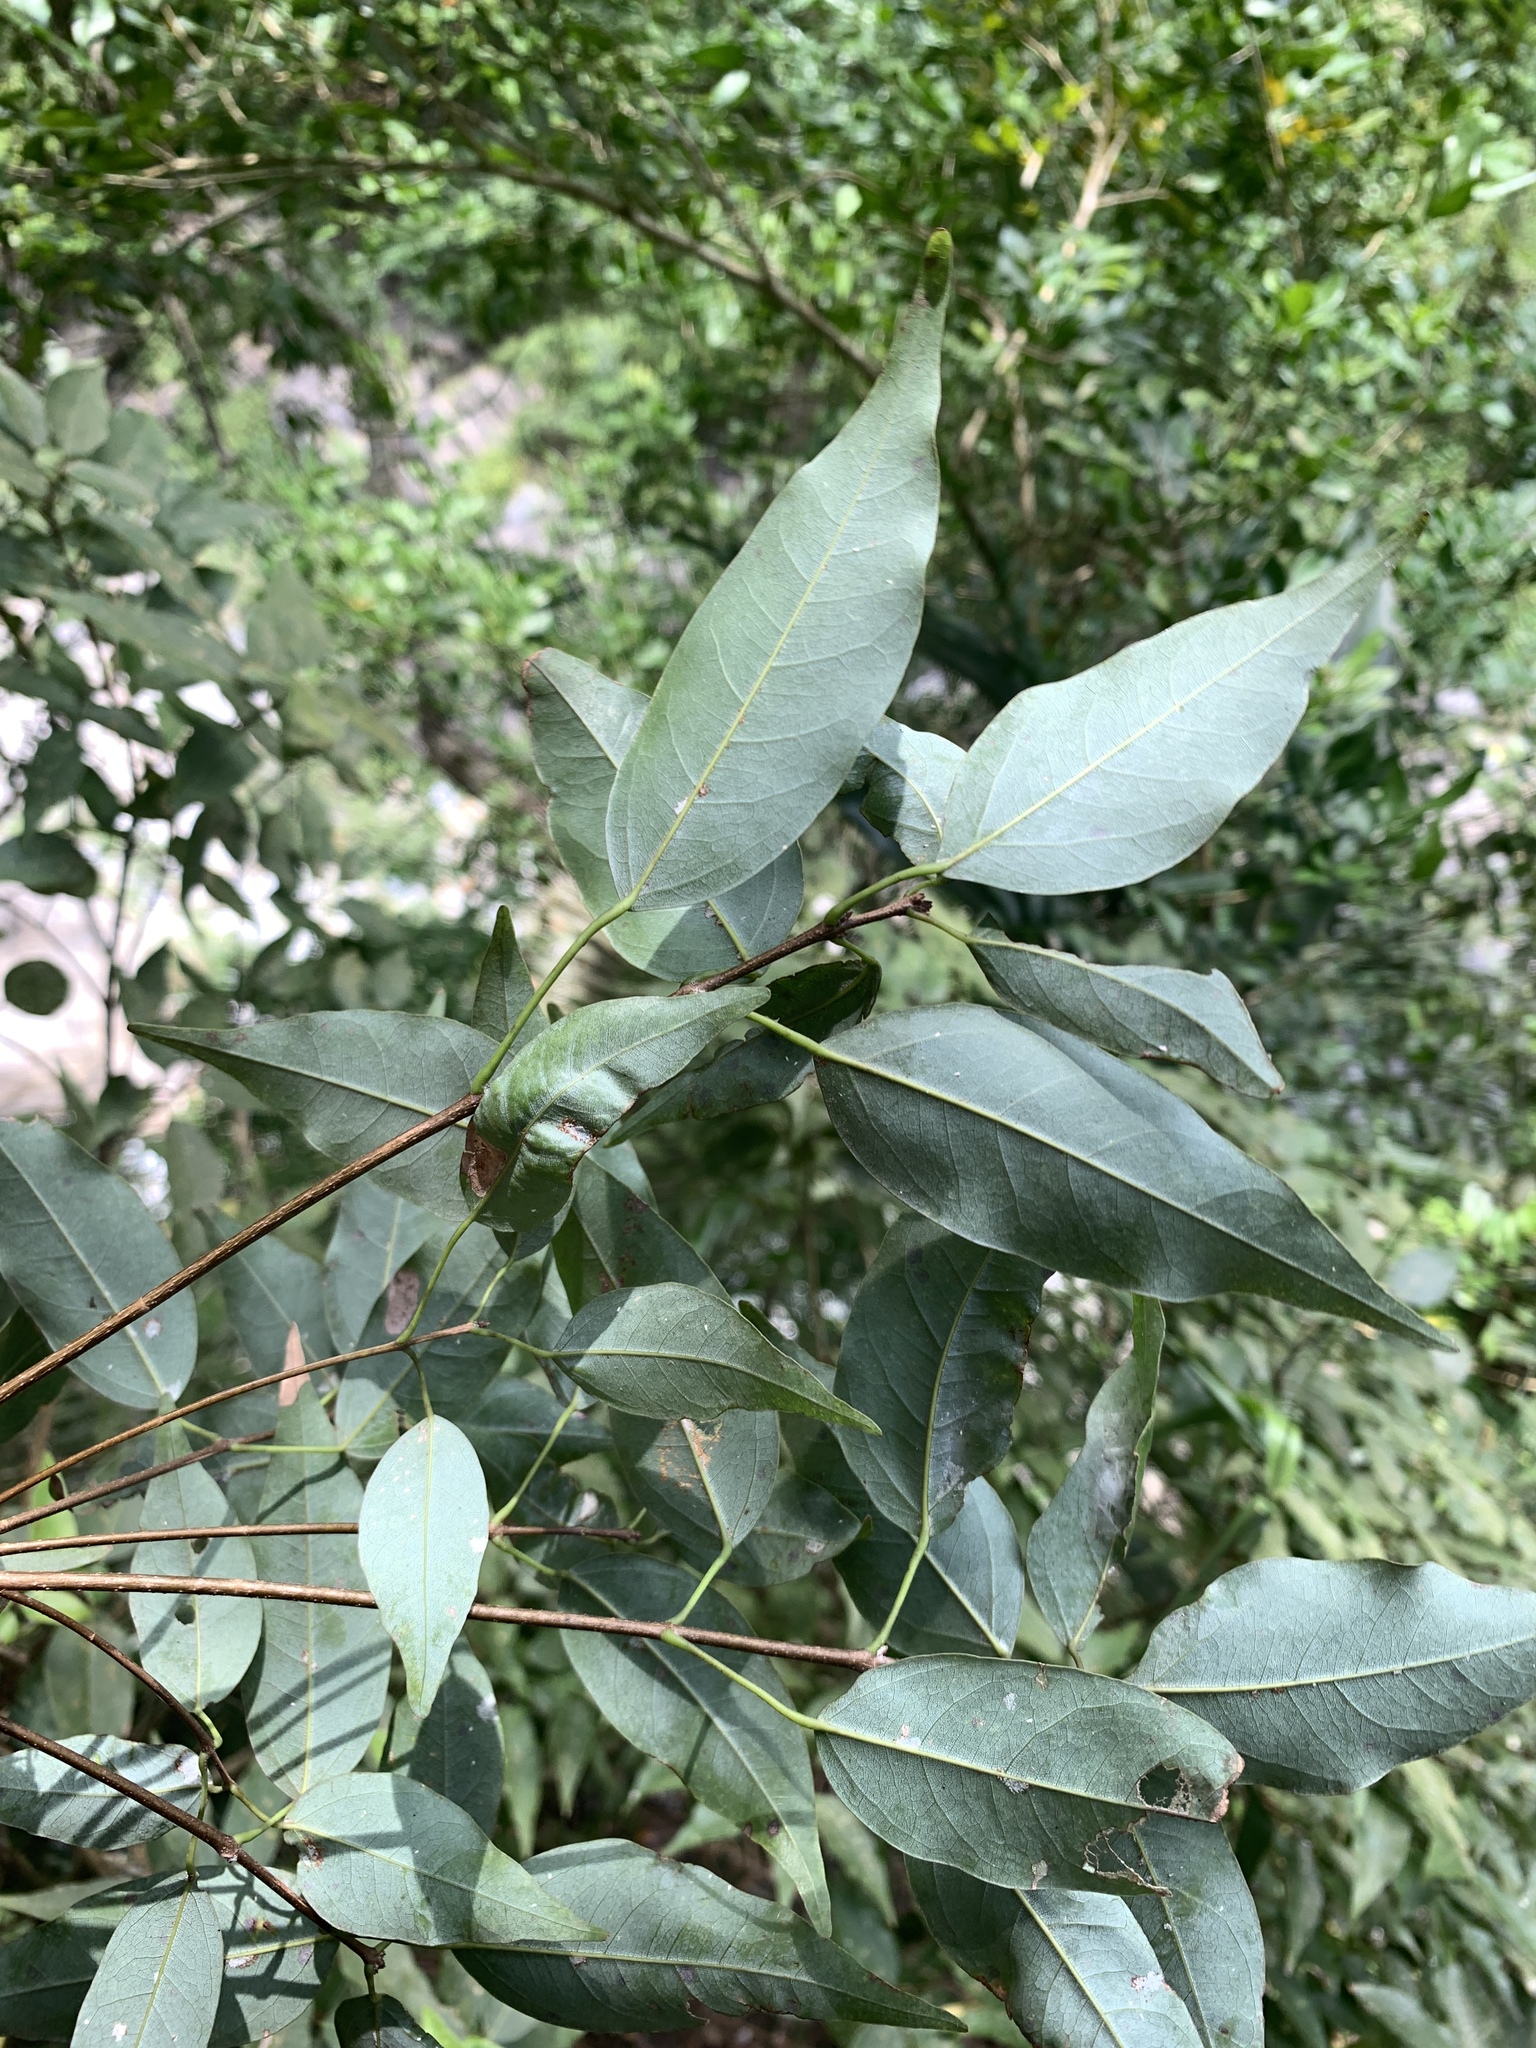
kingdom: Plantae
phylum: Tracheophyta
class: Magnoliopsida
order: Sapindales
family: Sapindaceae
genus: Acer
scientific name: Acer oblongum
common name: Himalayan maple
